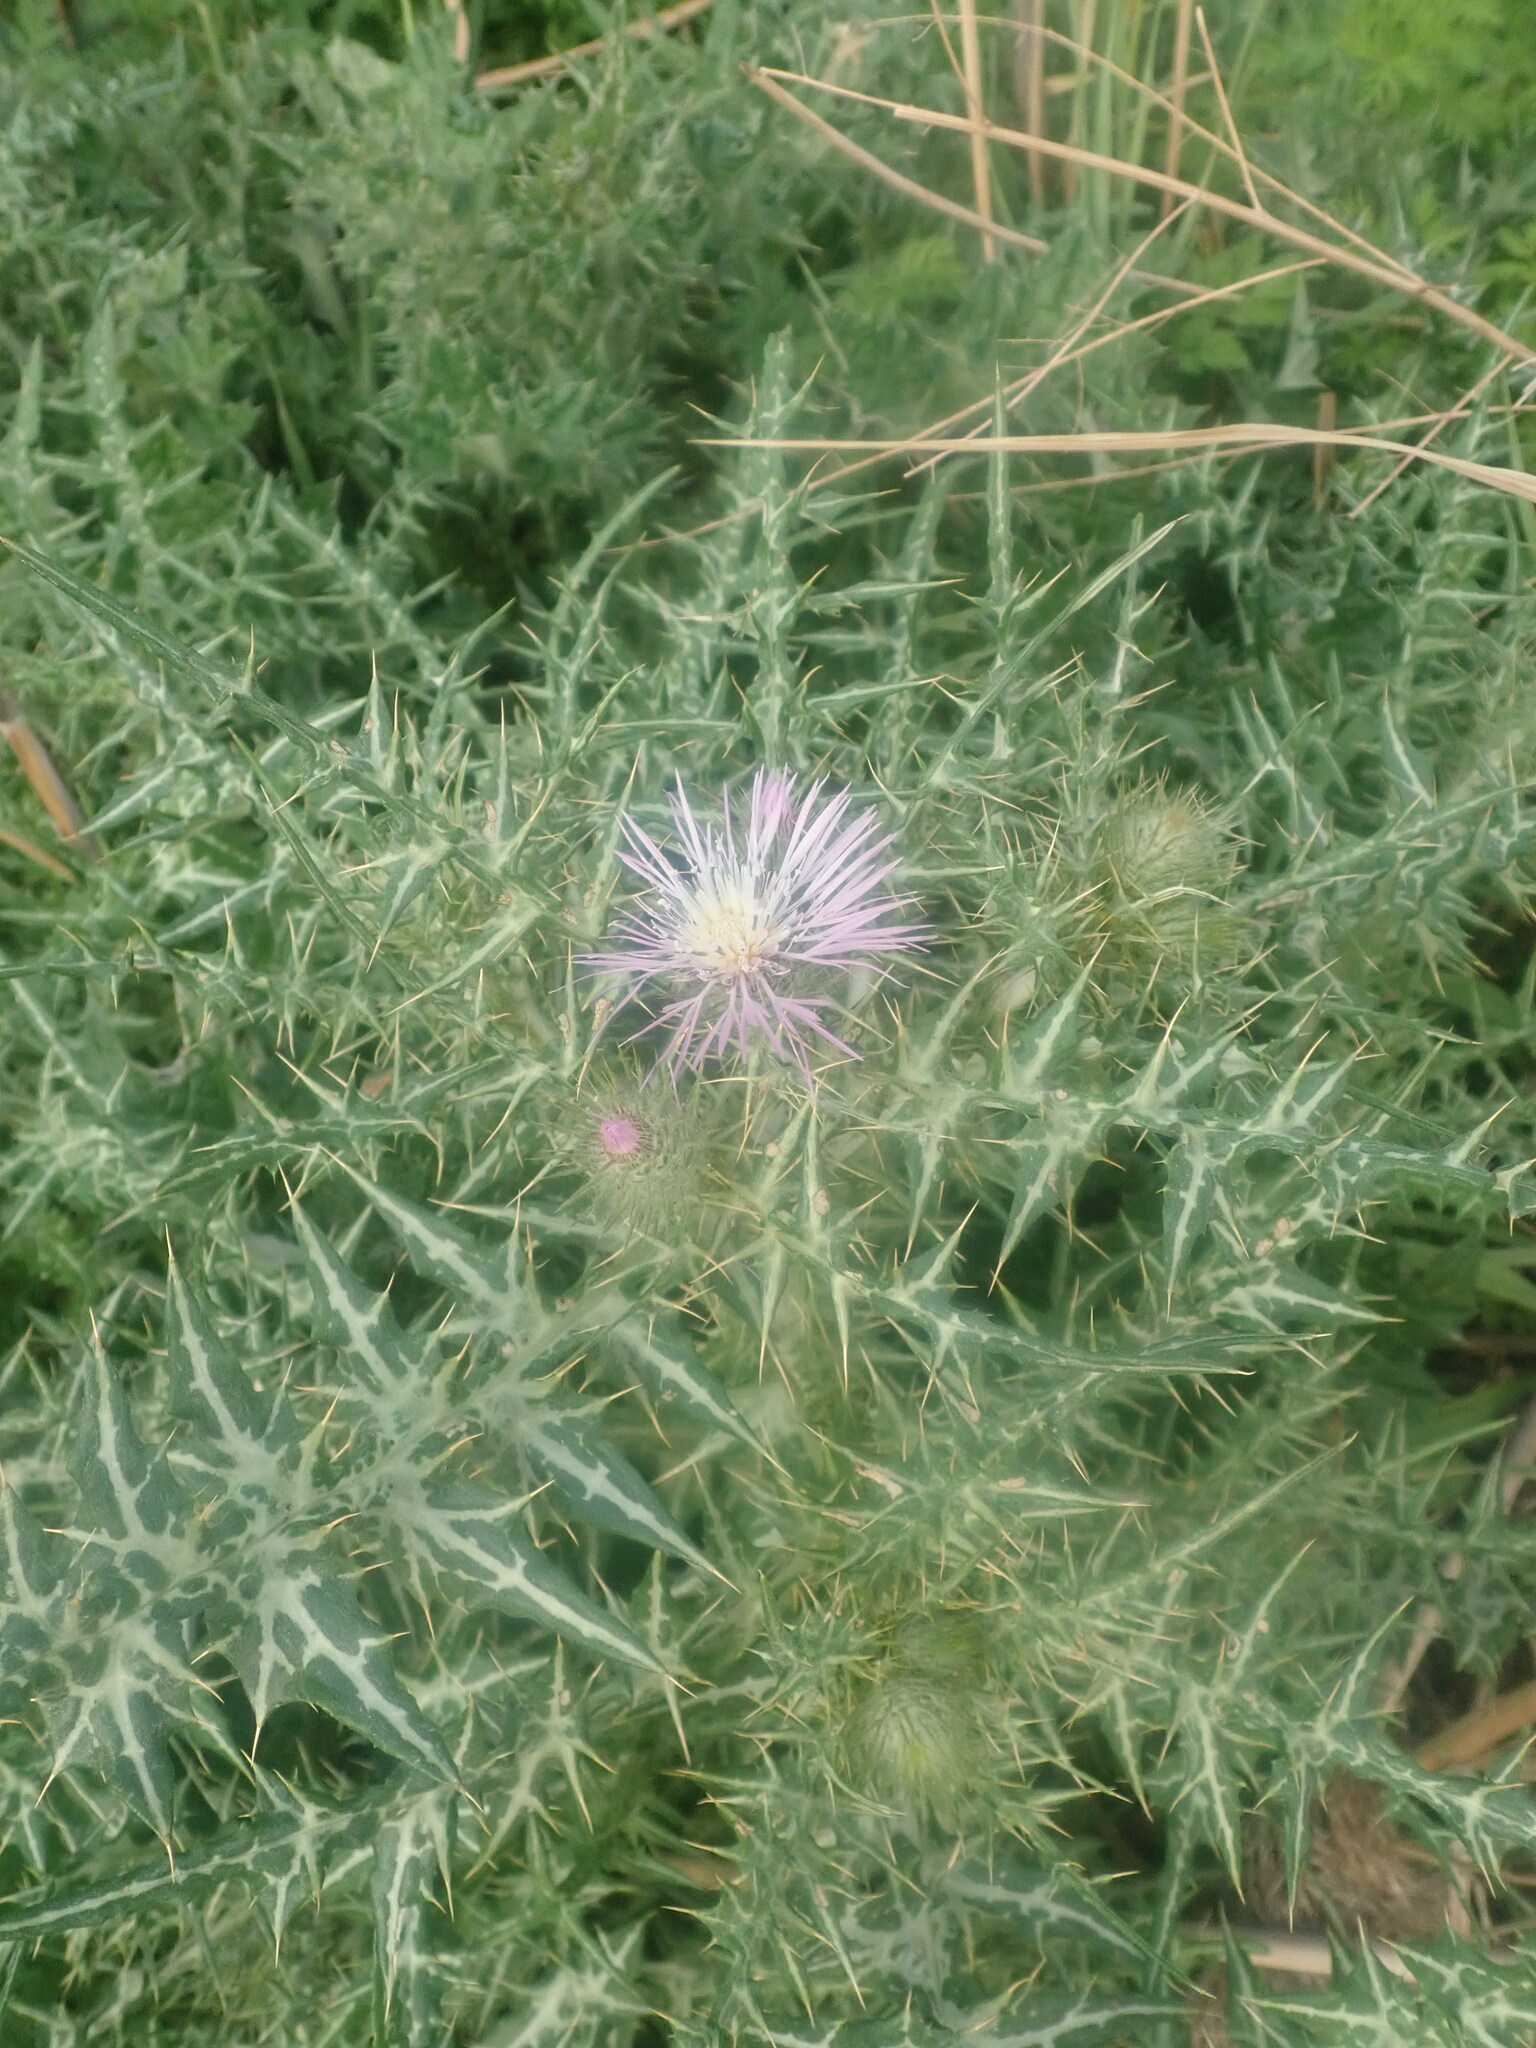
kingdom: Plantae
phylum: Tracheophyta
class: Magnoliopsida
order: Asterales
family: Asteraceae
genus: Galactites
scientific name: Galactites tomentosa
